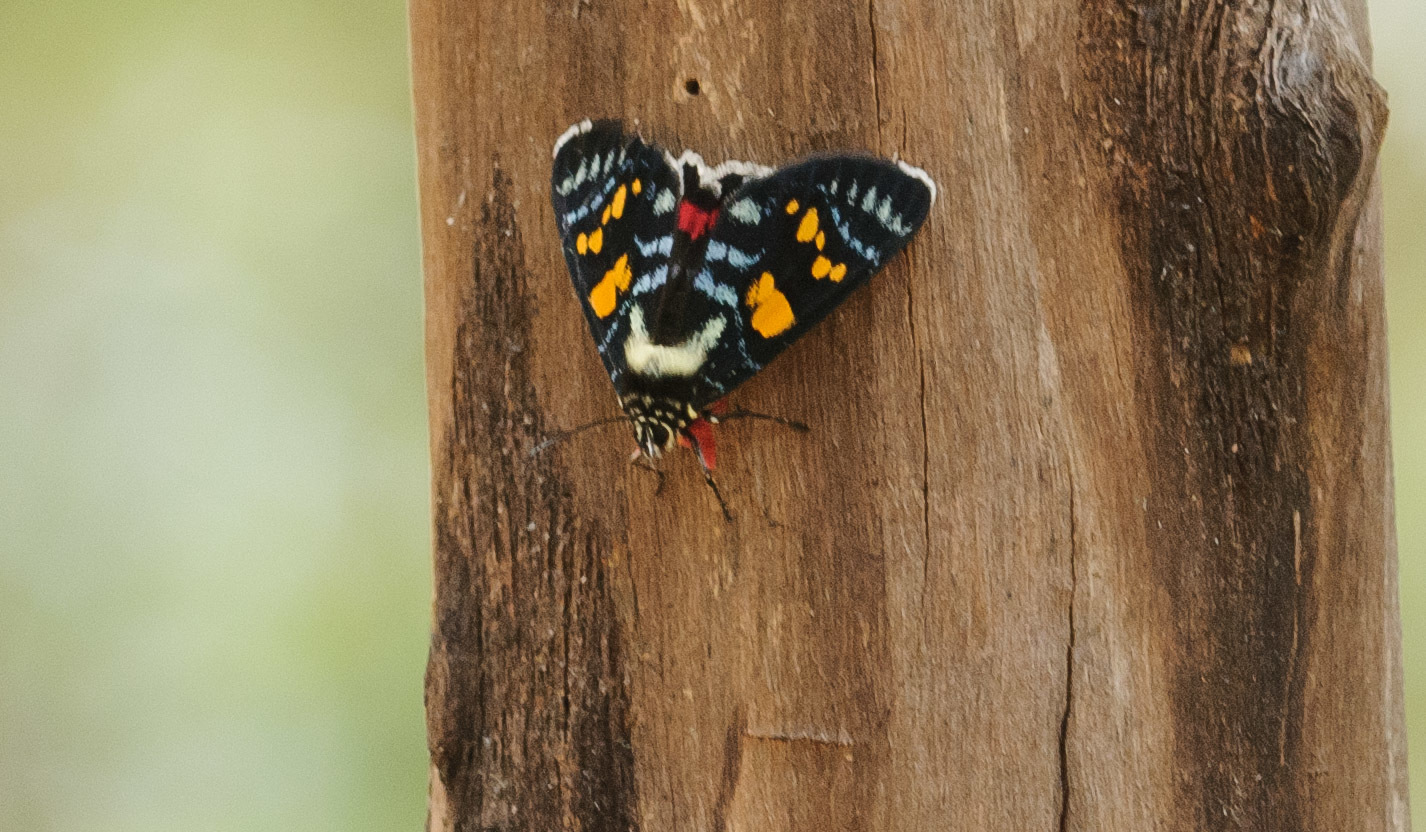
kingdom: Animalia
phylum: Arthropoda
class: Insecta
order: Lepidoptera
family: Noctuidae
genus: Agarista
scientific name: Agarista agricola
